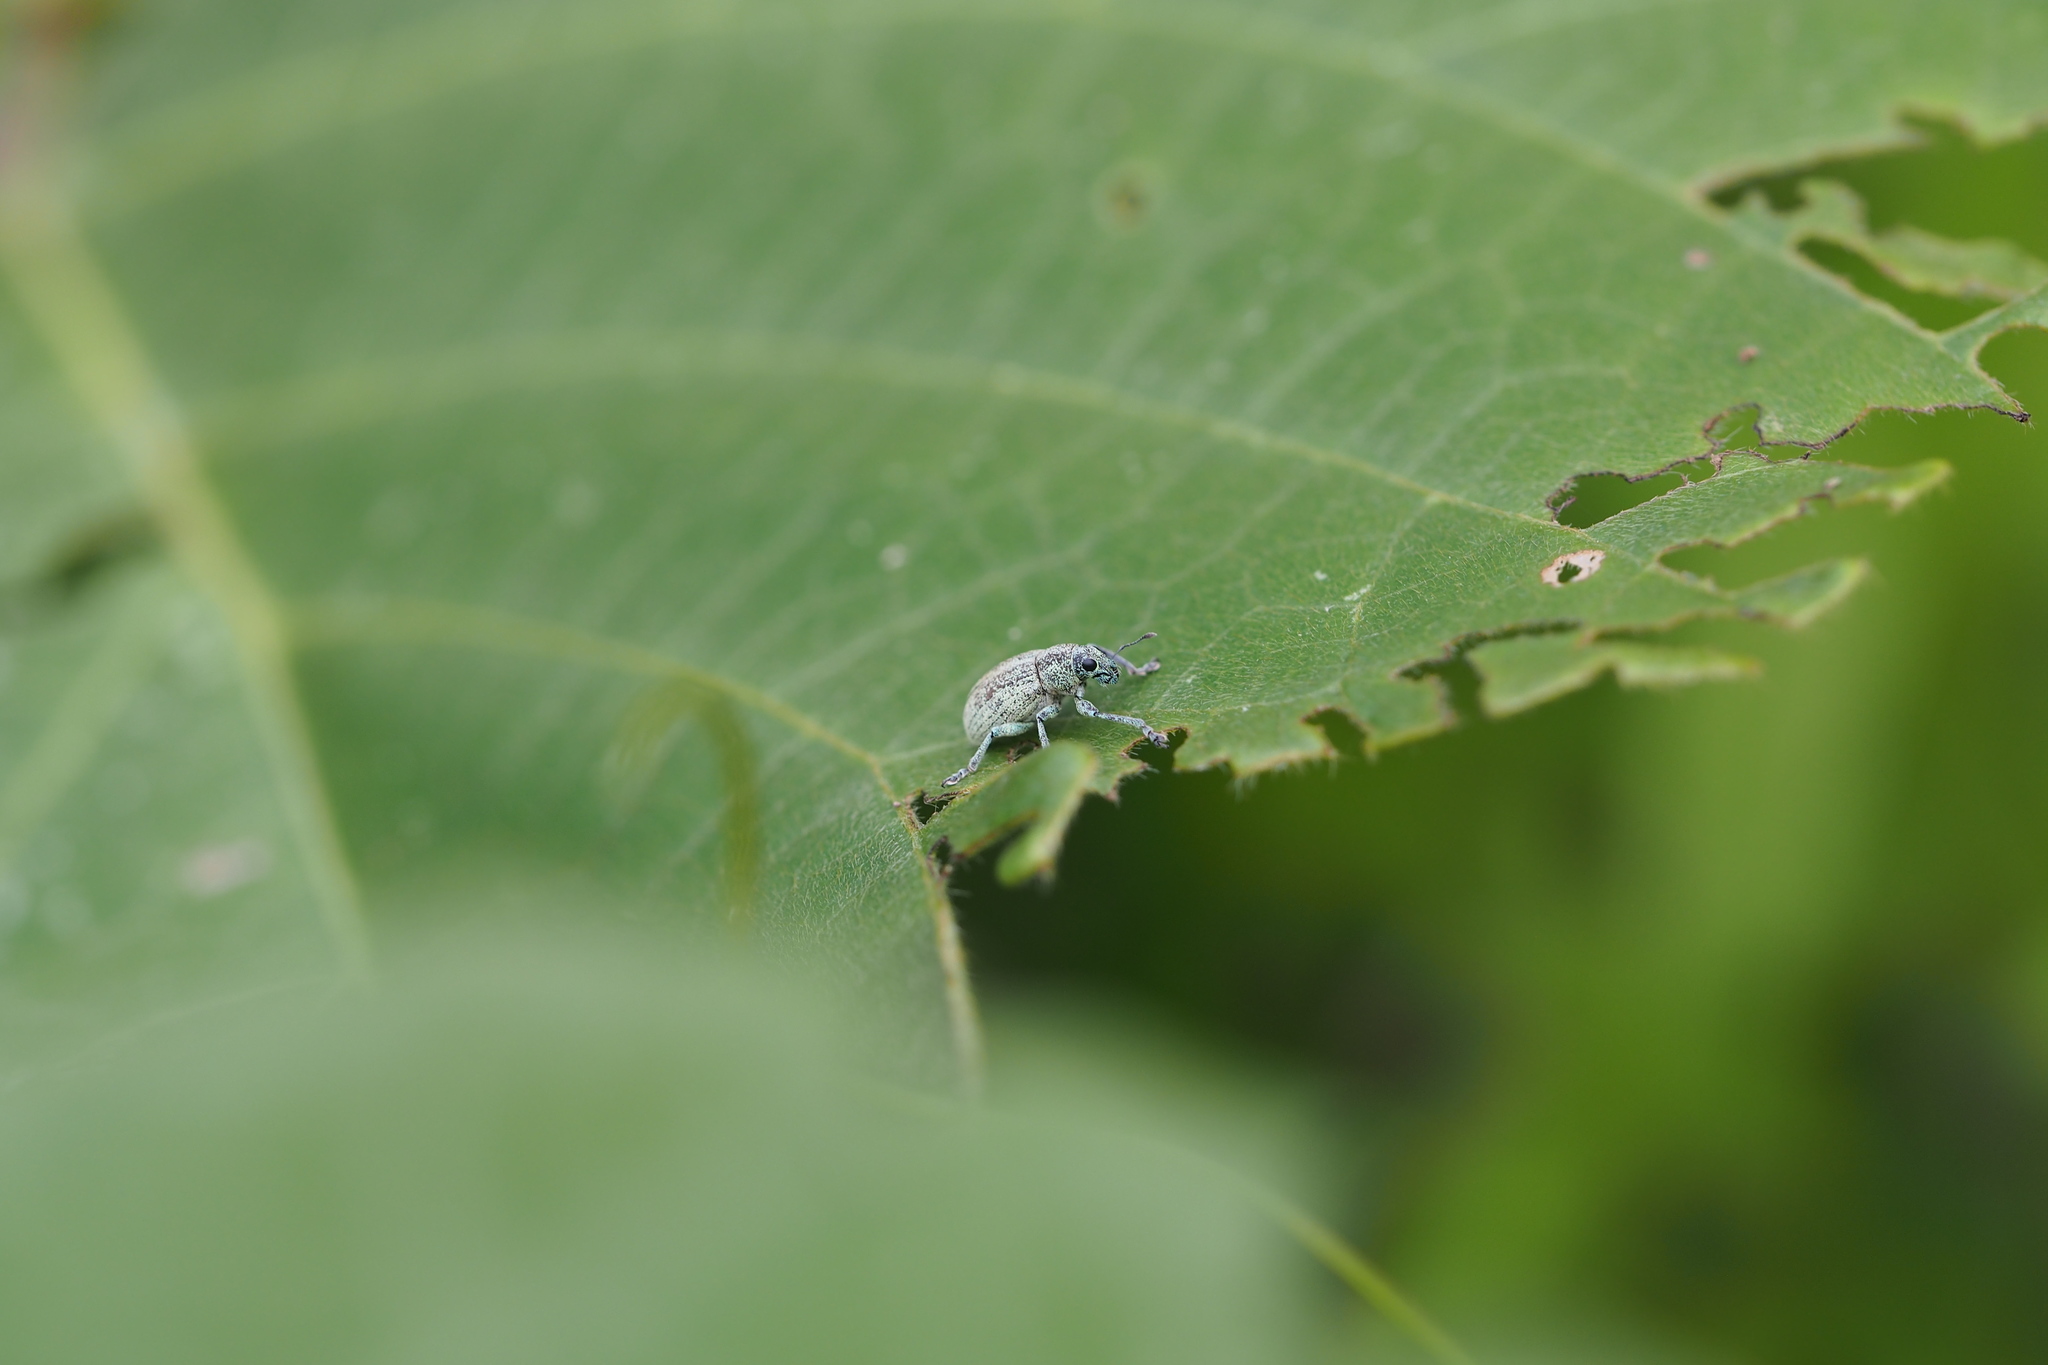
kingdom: Animalia
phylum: Arthropoda
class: Insecta
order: Coleoptera
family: Curculionidae
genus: Eugnathus
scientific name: Eugnathus distinctus
